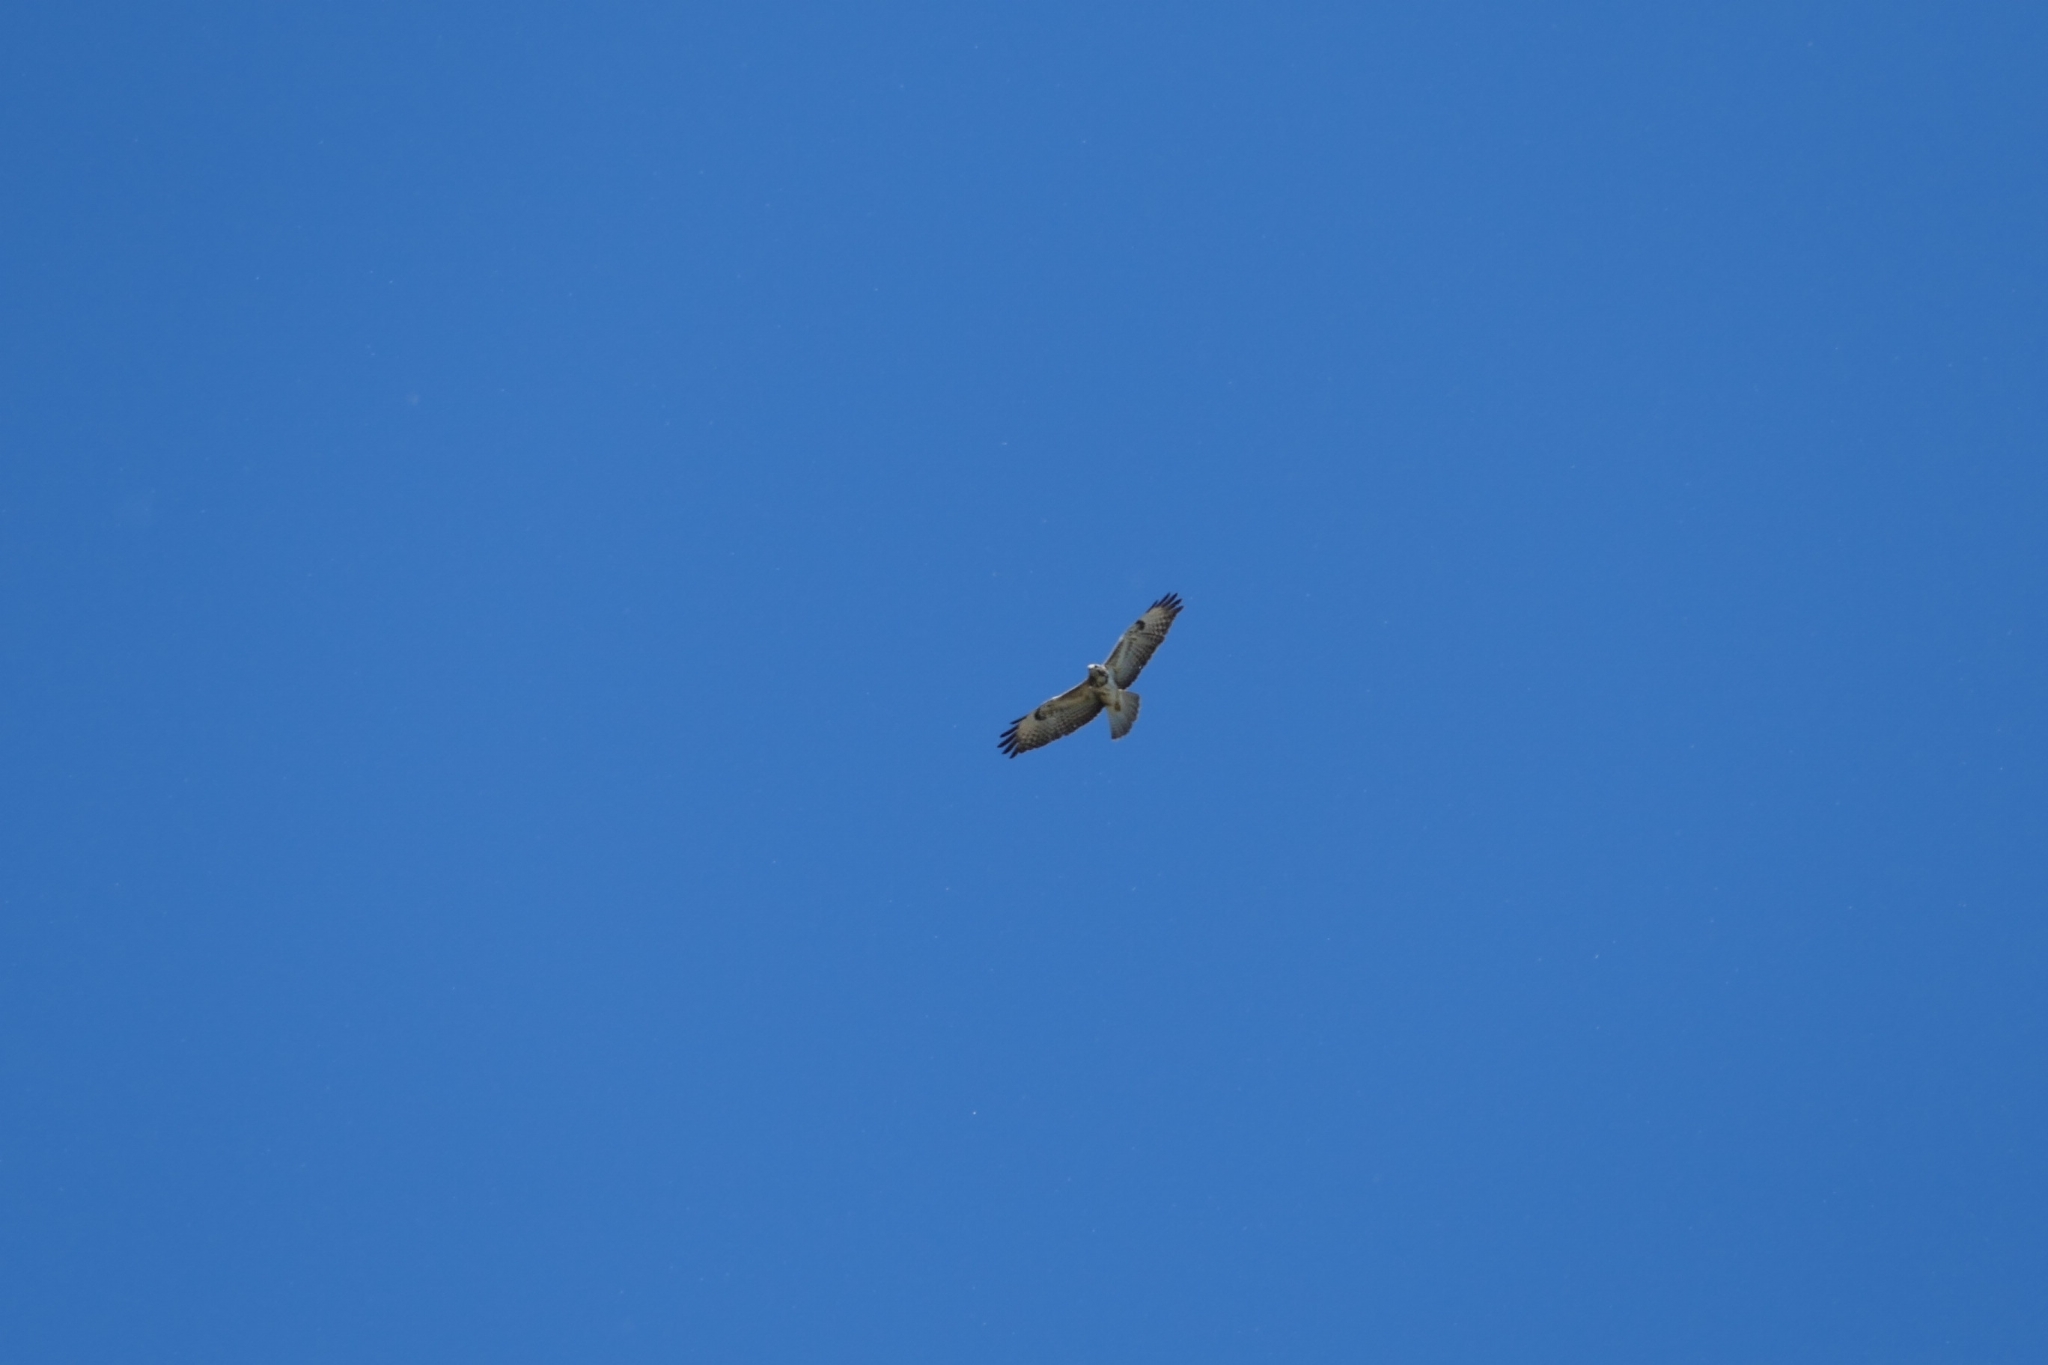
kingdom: Animalia
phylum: Chordata
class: Aves
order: Accipitriformes
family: Accipitridae
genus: Buteo
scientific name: Buteo buteo
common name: Common buzzard
